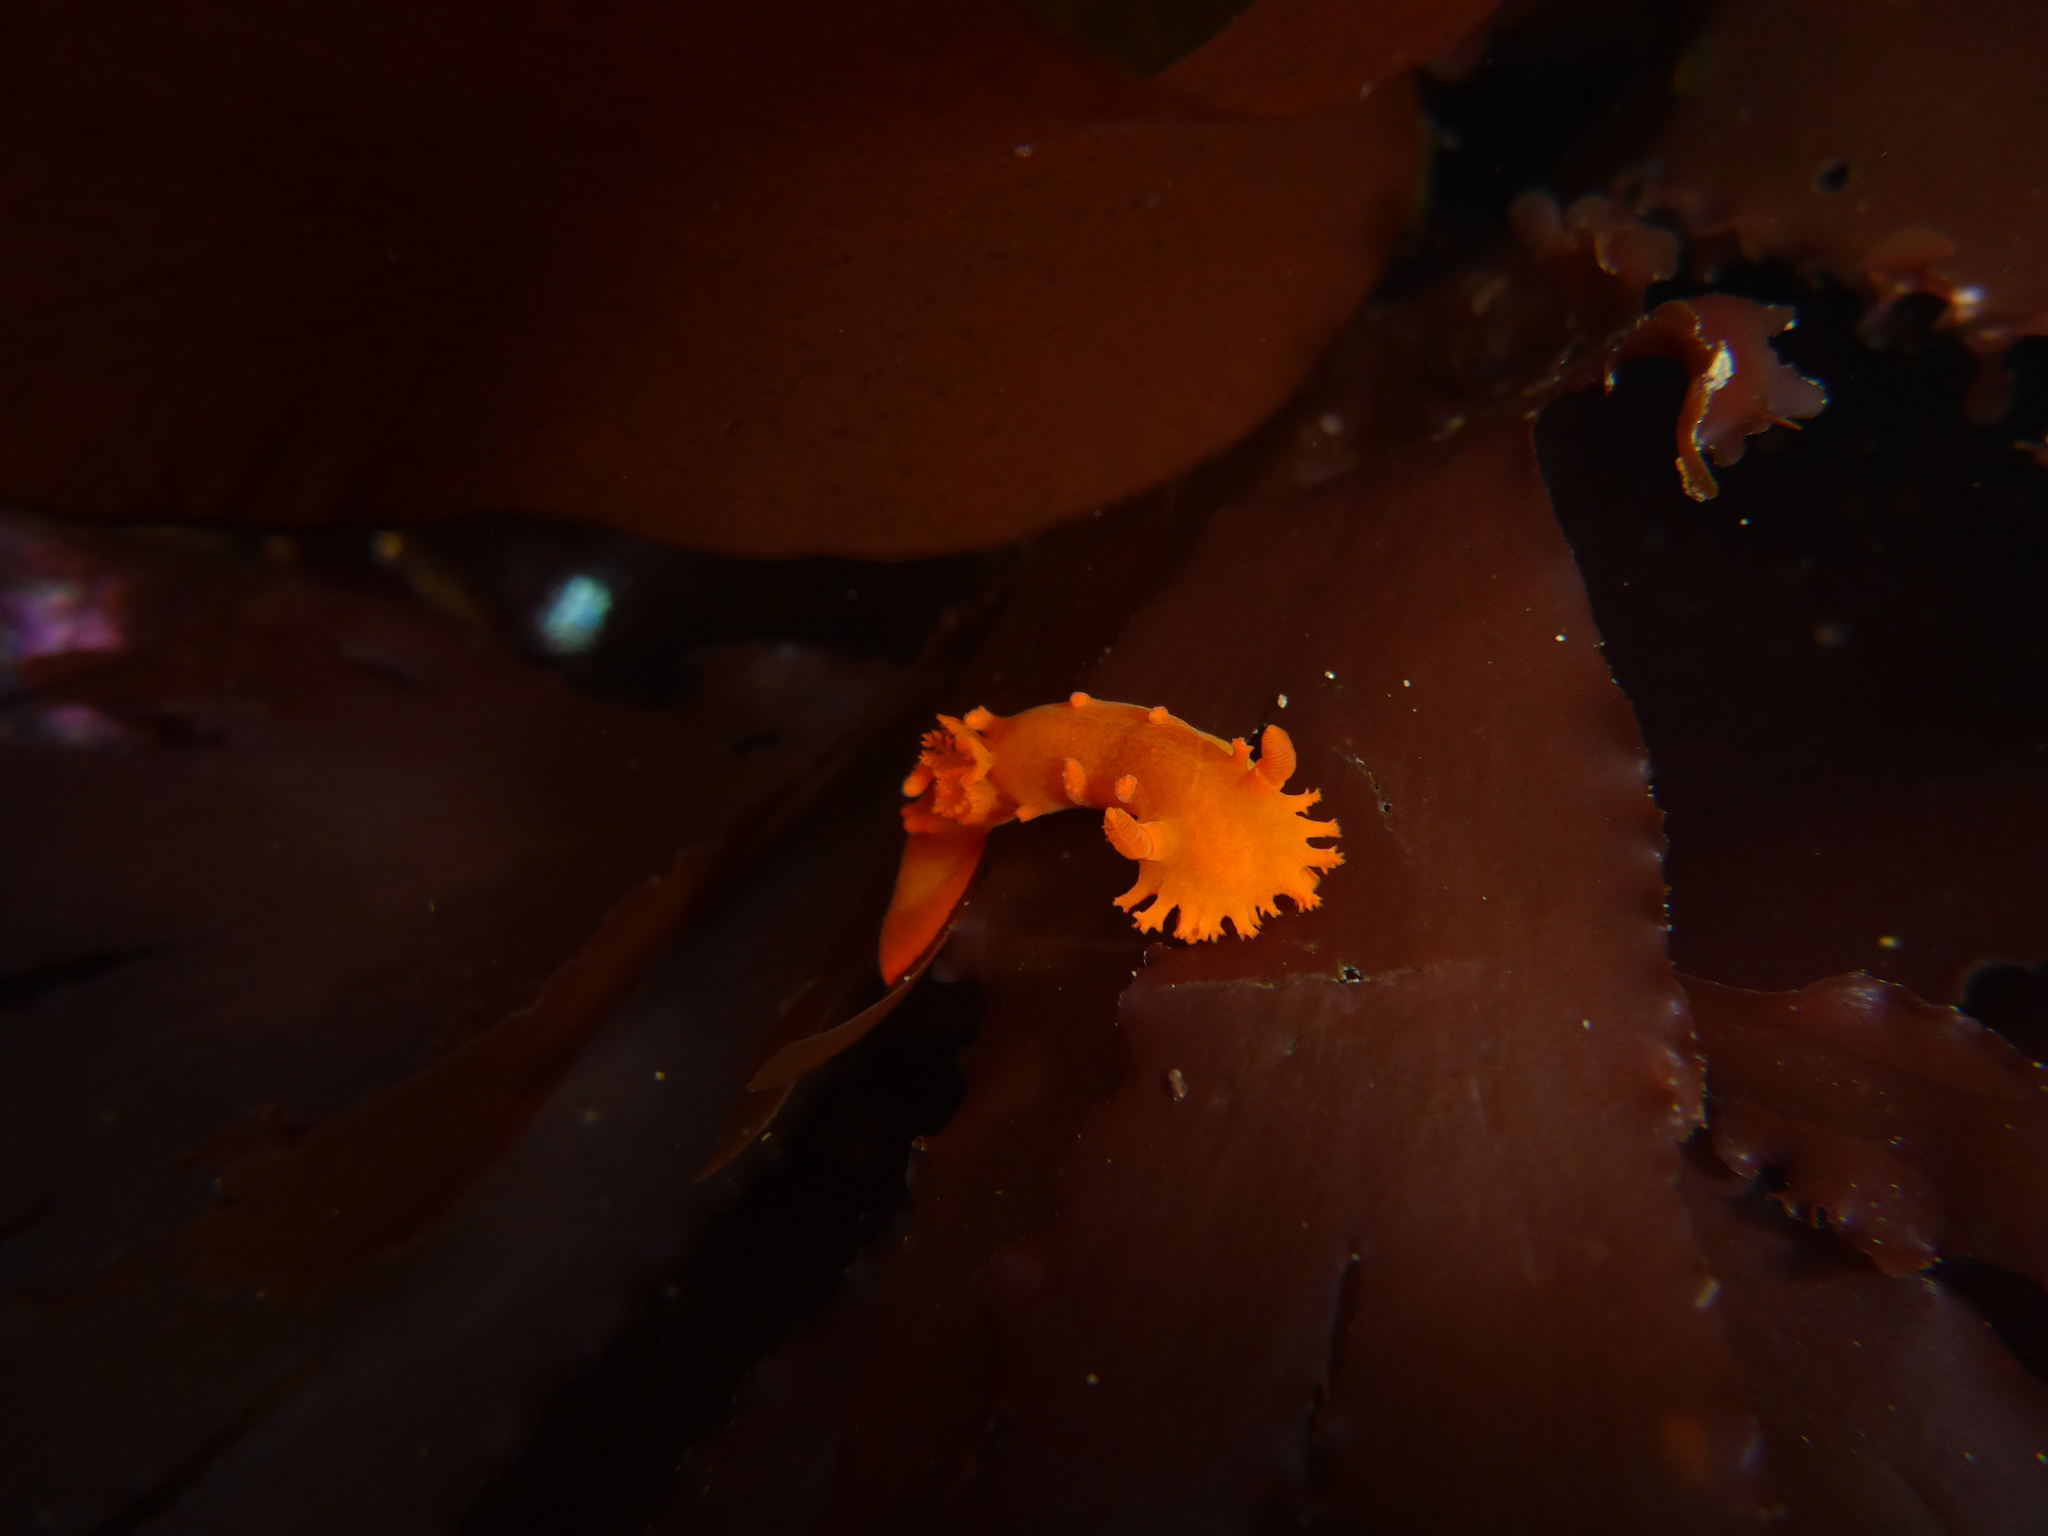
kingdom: Animalia
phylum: Mollusca
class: Gastropoda
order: Nudibranchia
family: Polyceridae
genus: Triopha
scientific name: Triopha maculata
